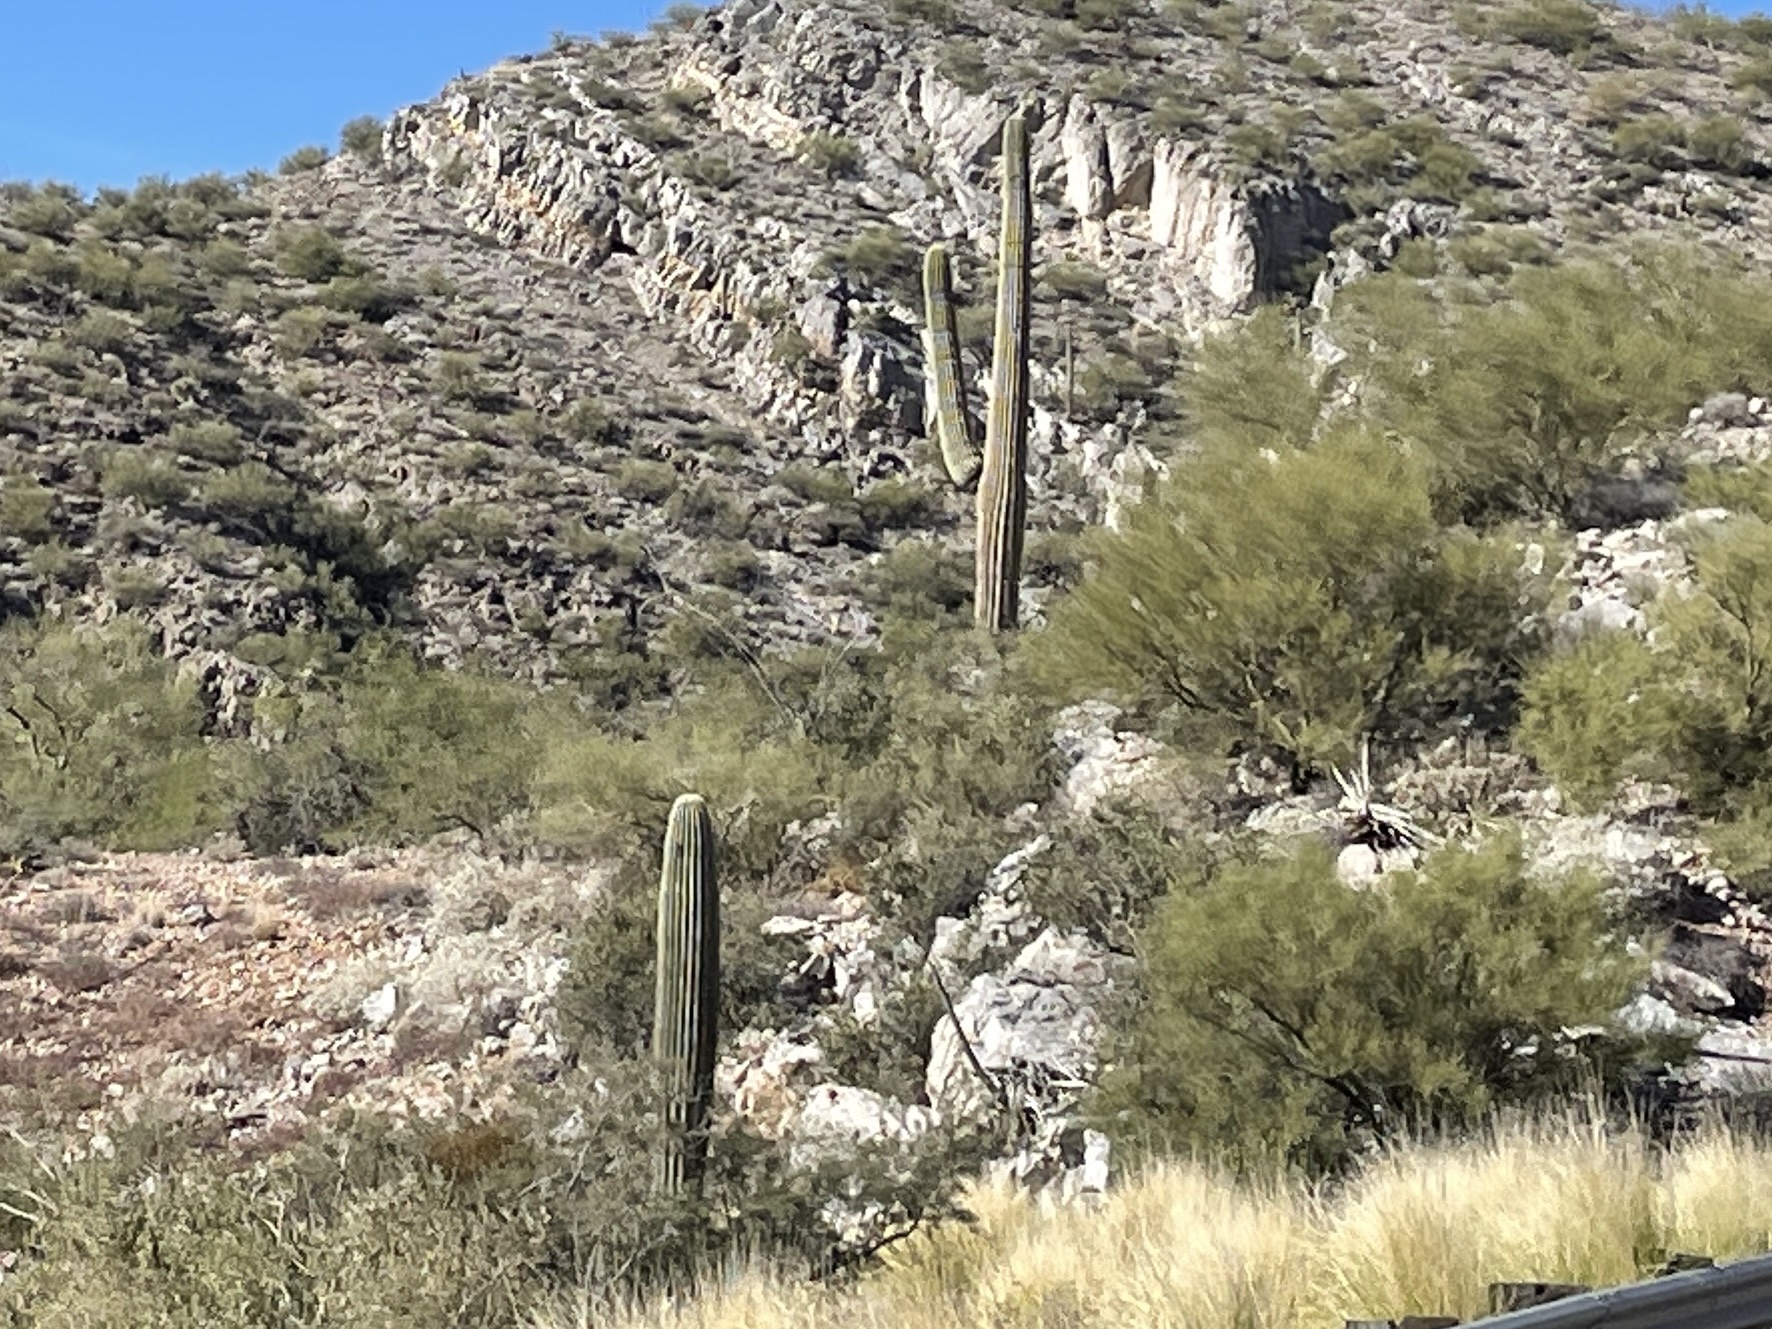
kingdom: Plantae
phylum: Tracheophyta
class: Magnoliopsida
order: Caryophyllales
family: Cactaceae
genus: Carnegiea
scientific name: Carnegiea gigantea
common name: Saguaro
